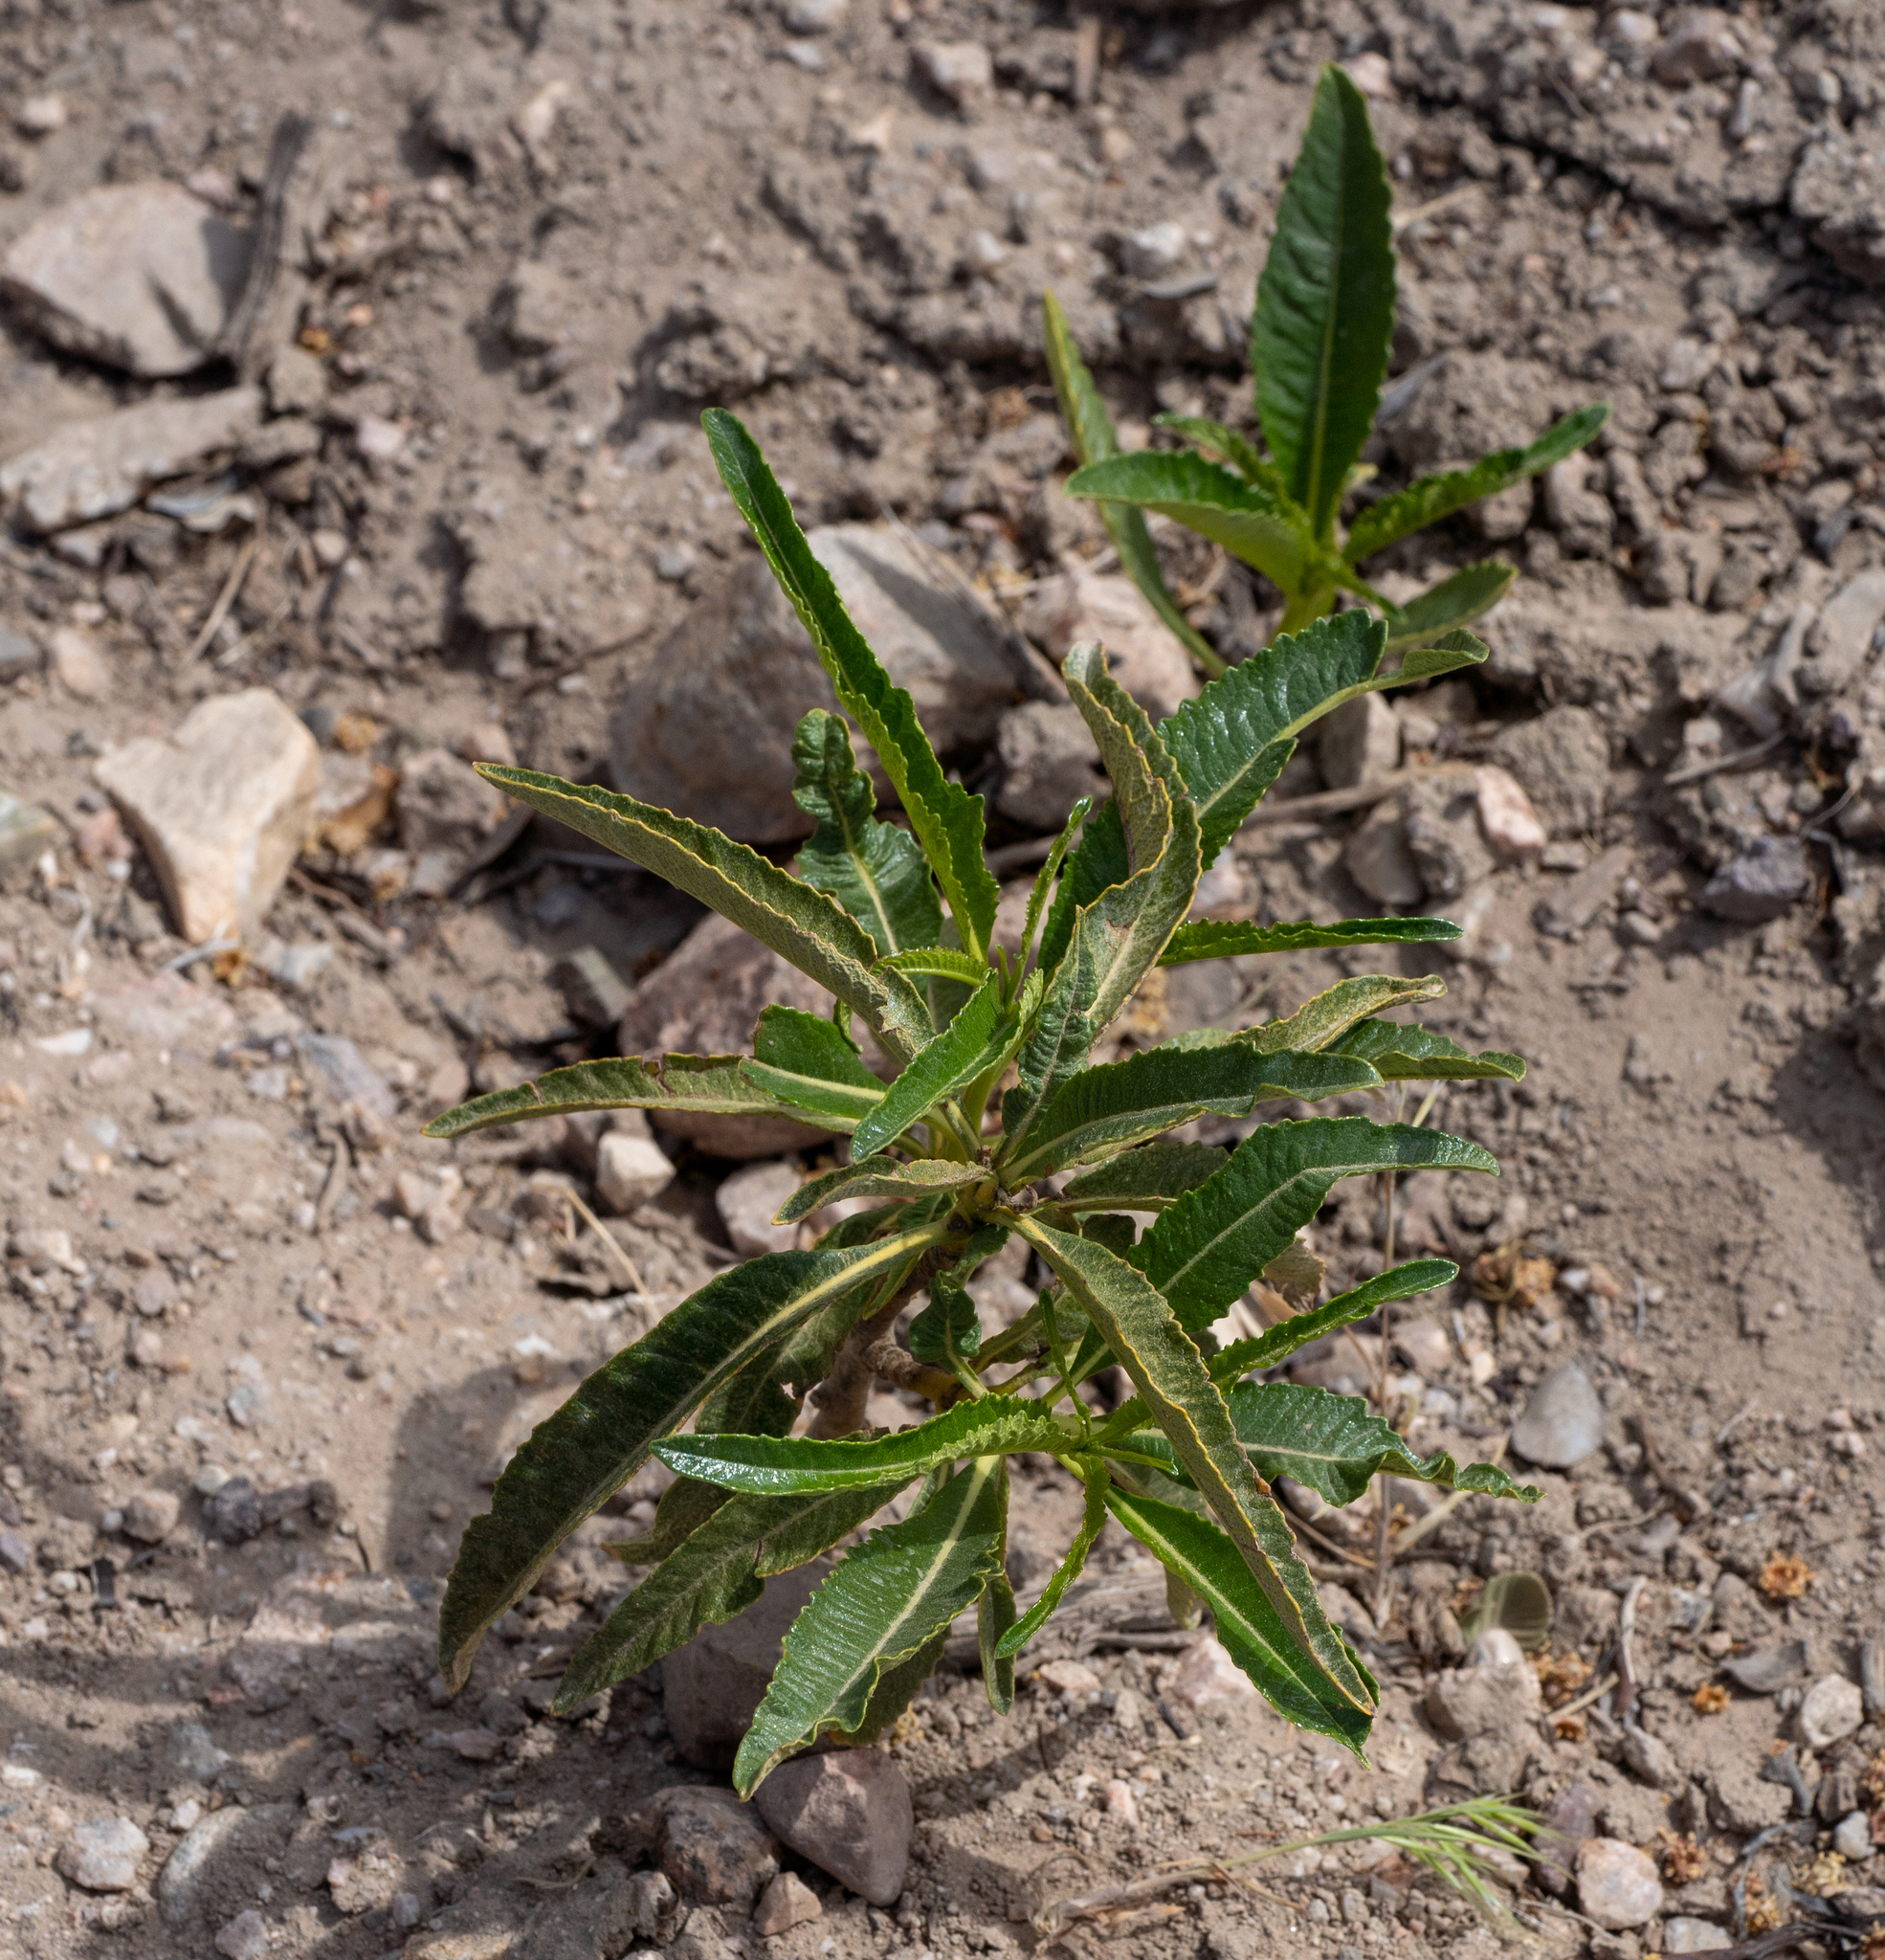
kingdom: Plantae
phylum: Tracheophyta
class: Magnoliopsida
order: Boraginales
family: Namaceae
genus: Eriodictyon
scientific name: Eriodictyon trichocalyx
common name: Hairy yerba-santa
